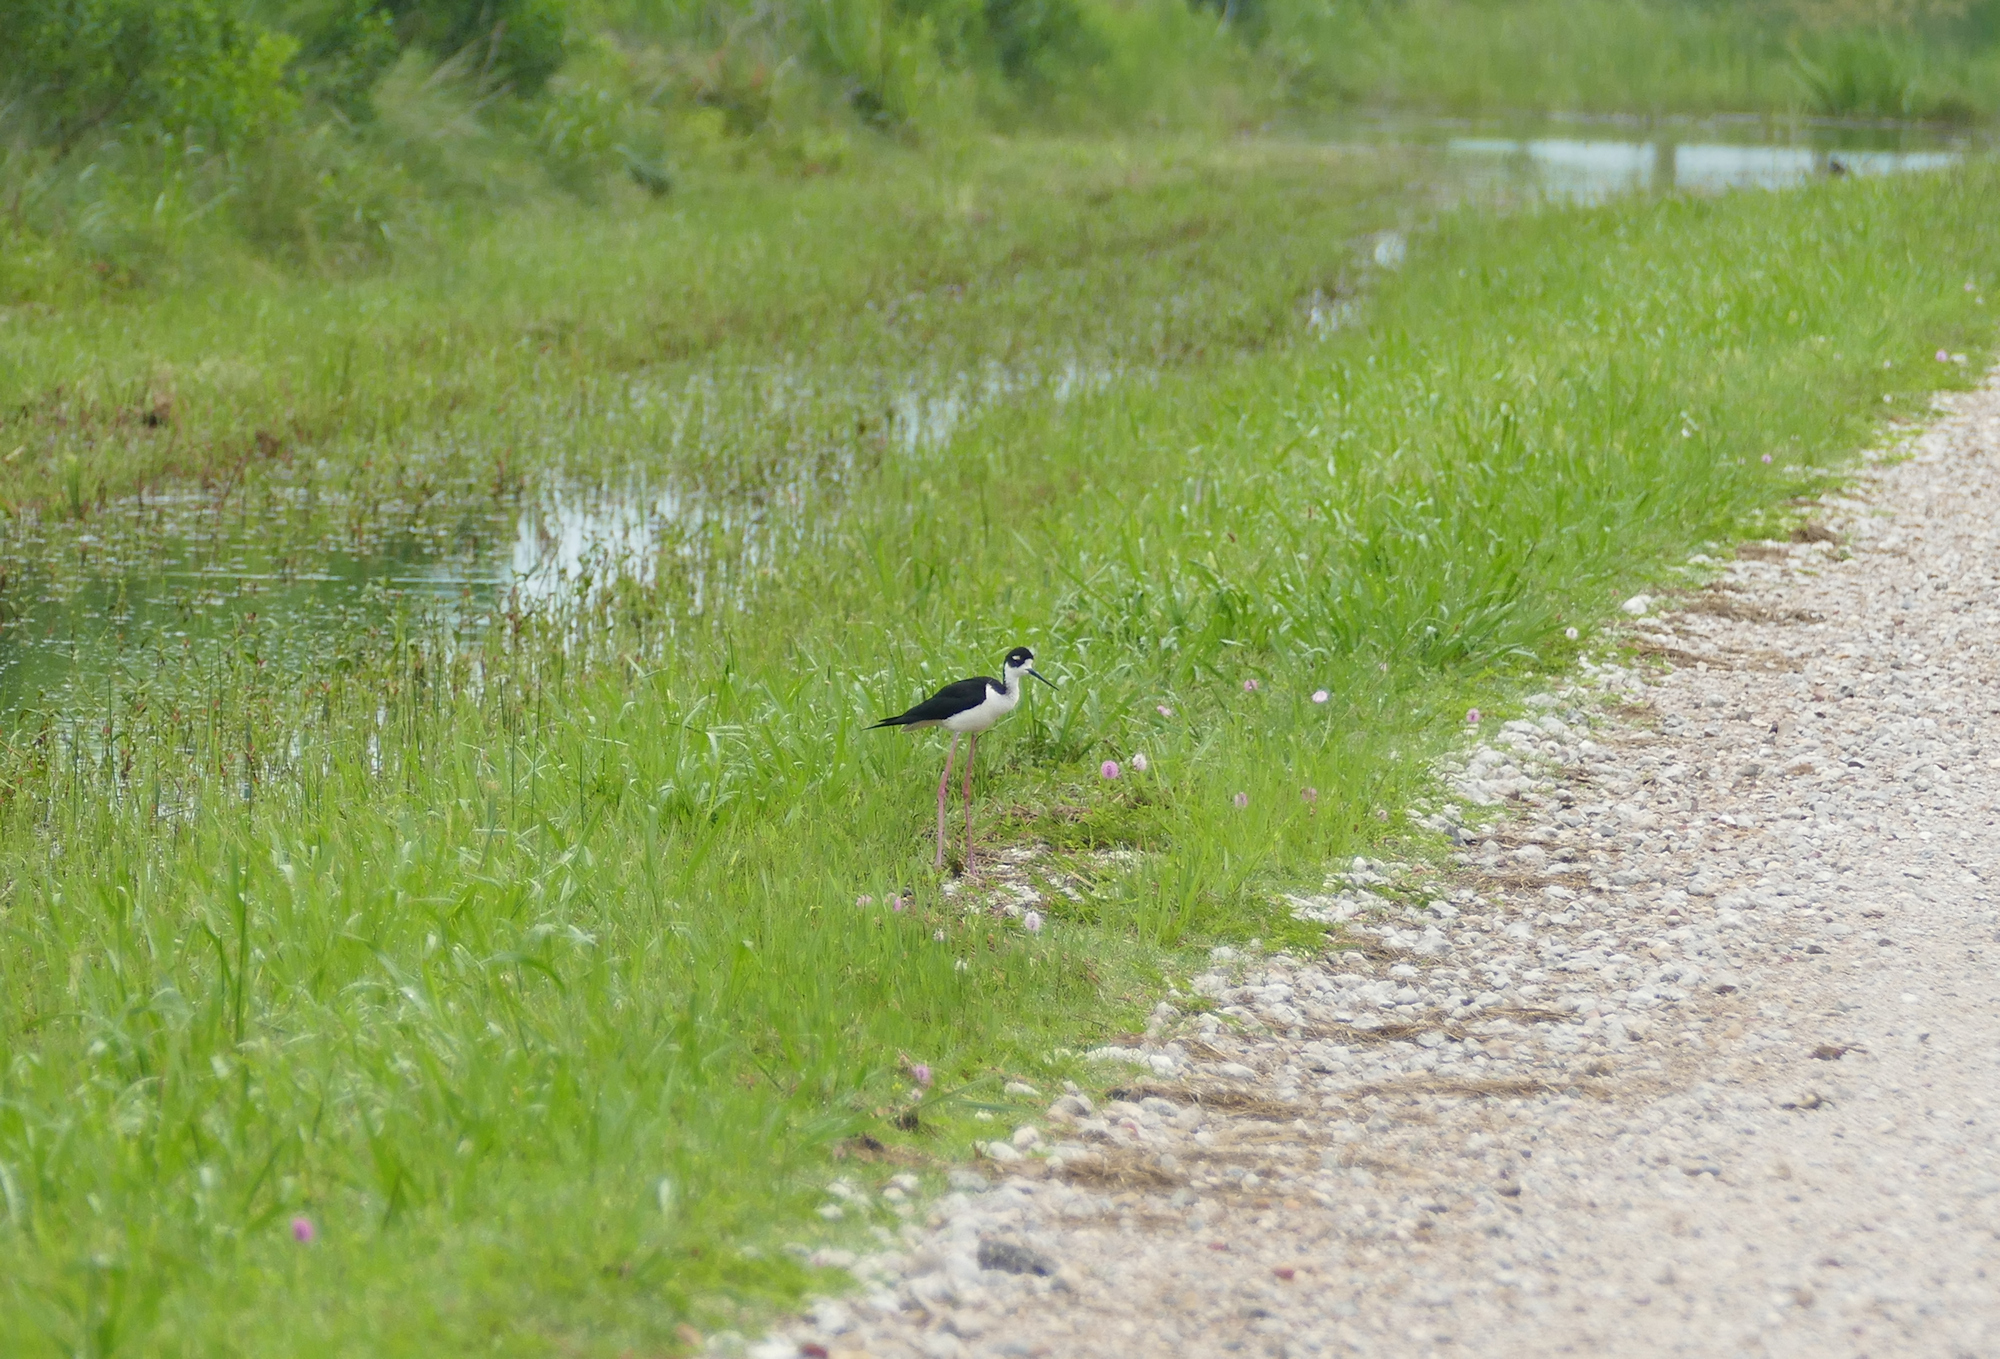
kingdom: Animalia
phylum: Chordata
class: Aves
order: Charadriiformes
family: Recurvirostridae
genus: Himantopus
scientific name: Himantopus mexicanus
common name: Black-necked stilt
